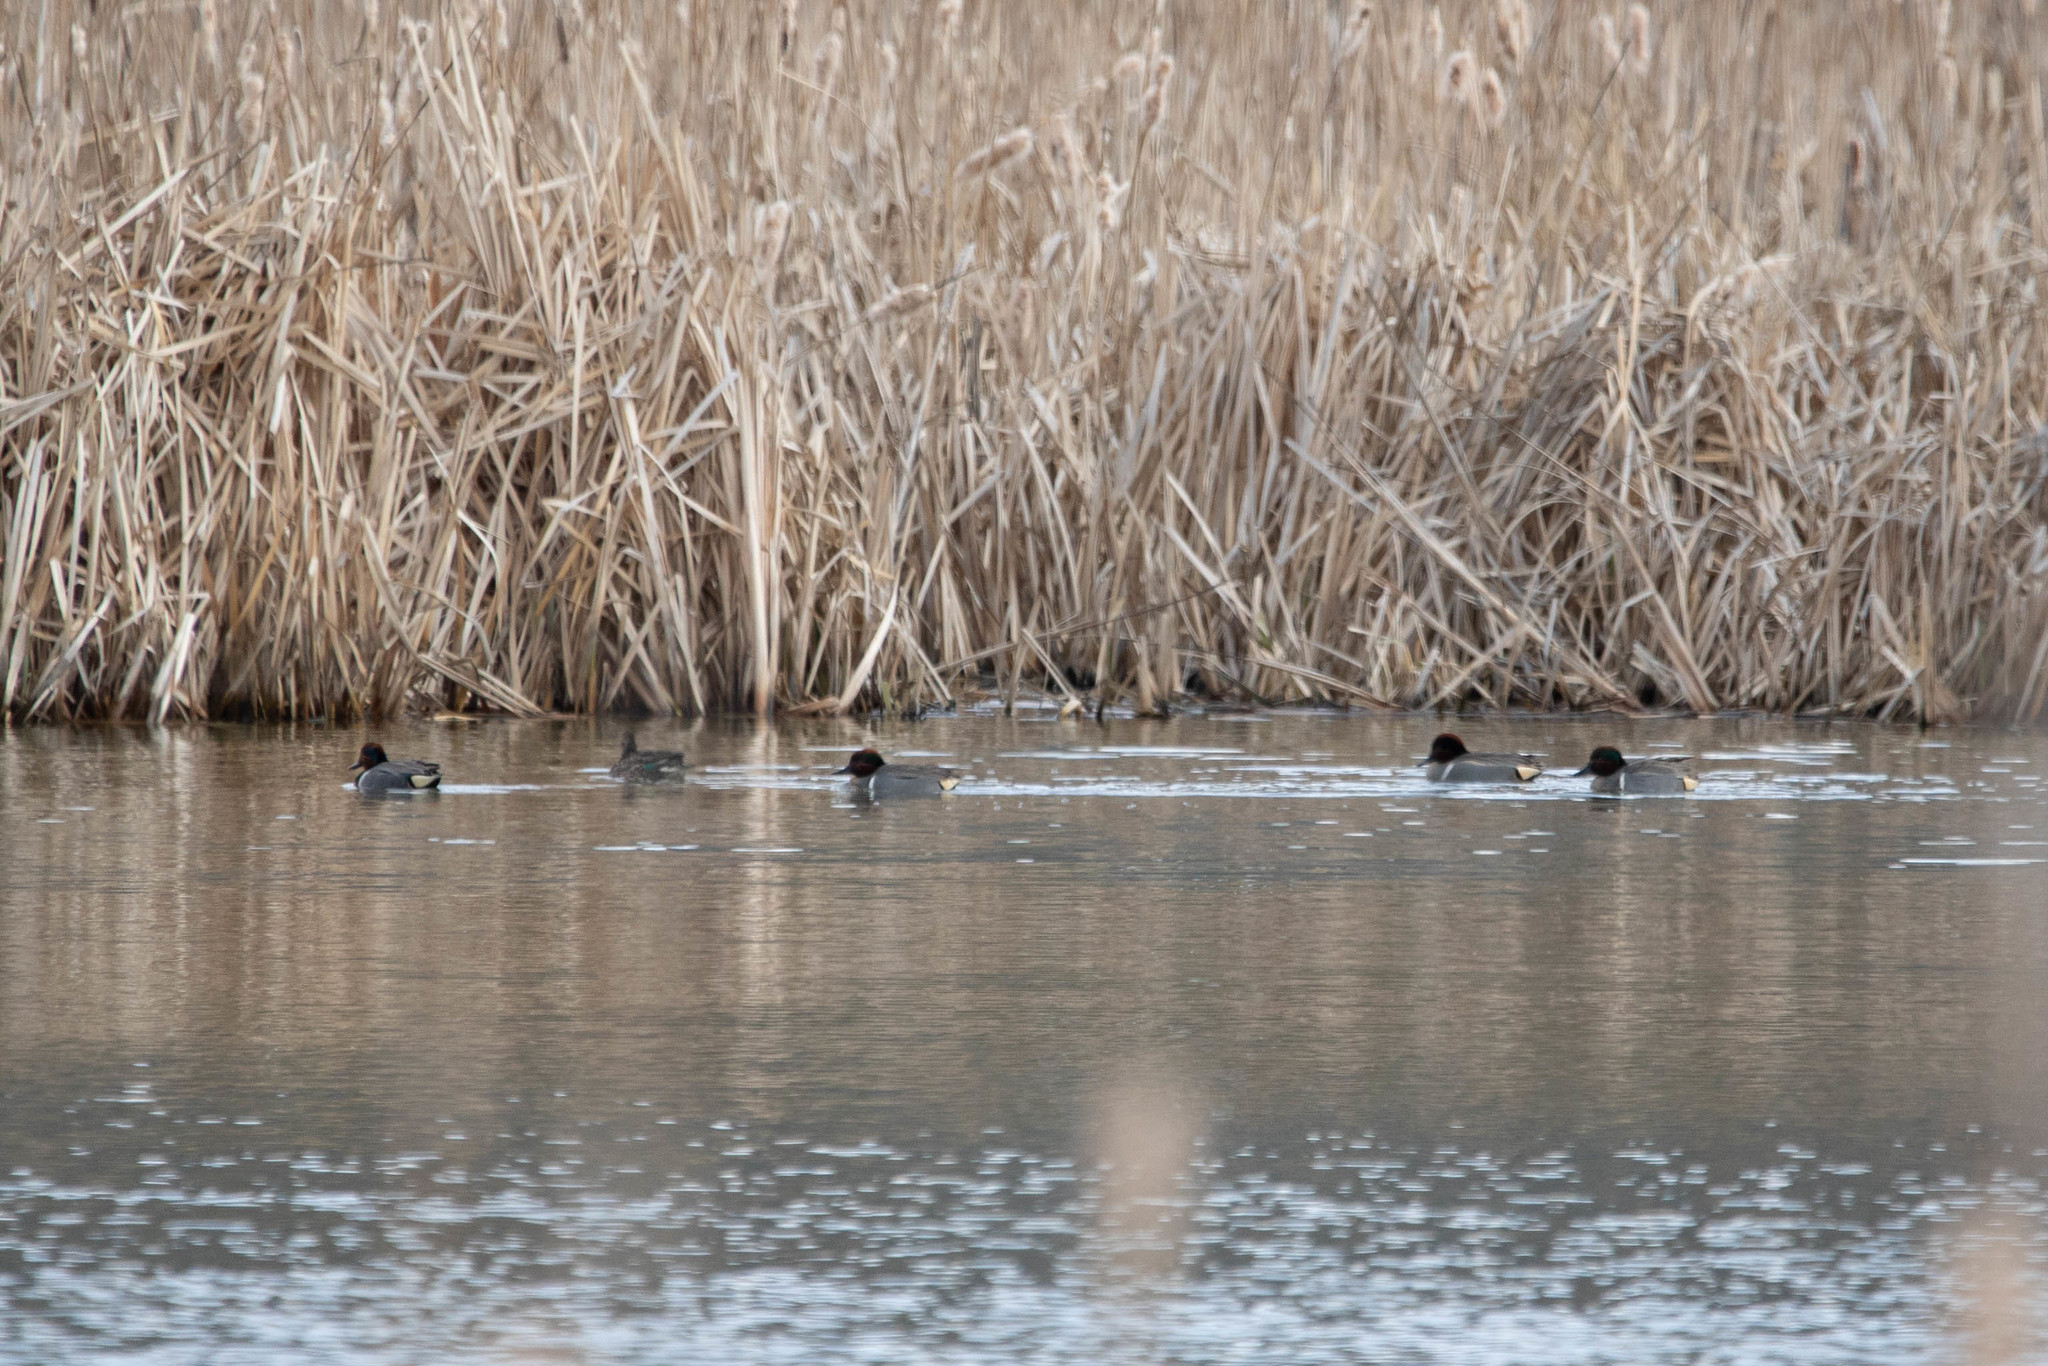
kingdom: Animalia
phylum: Chordata
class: Aves
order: Anseriformes
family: Anatidae
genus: Anas
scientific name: Anas carolinensis
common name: Green-winged teal
